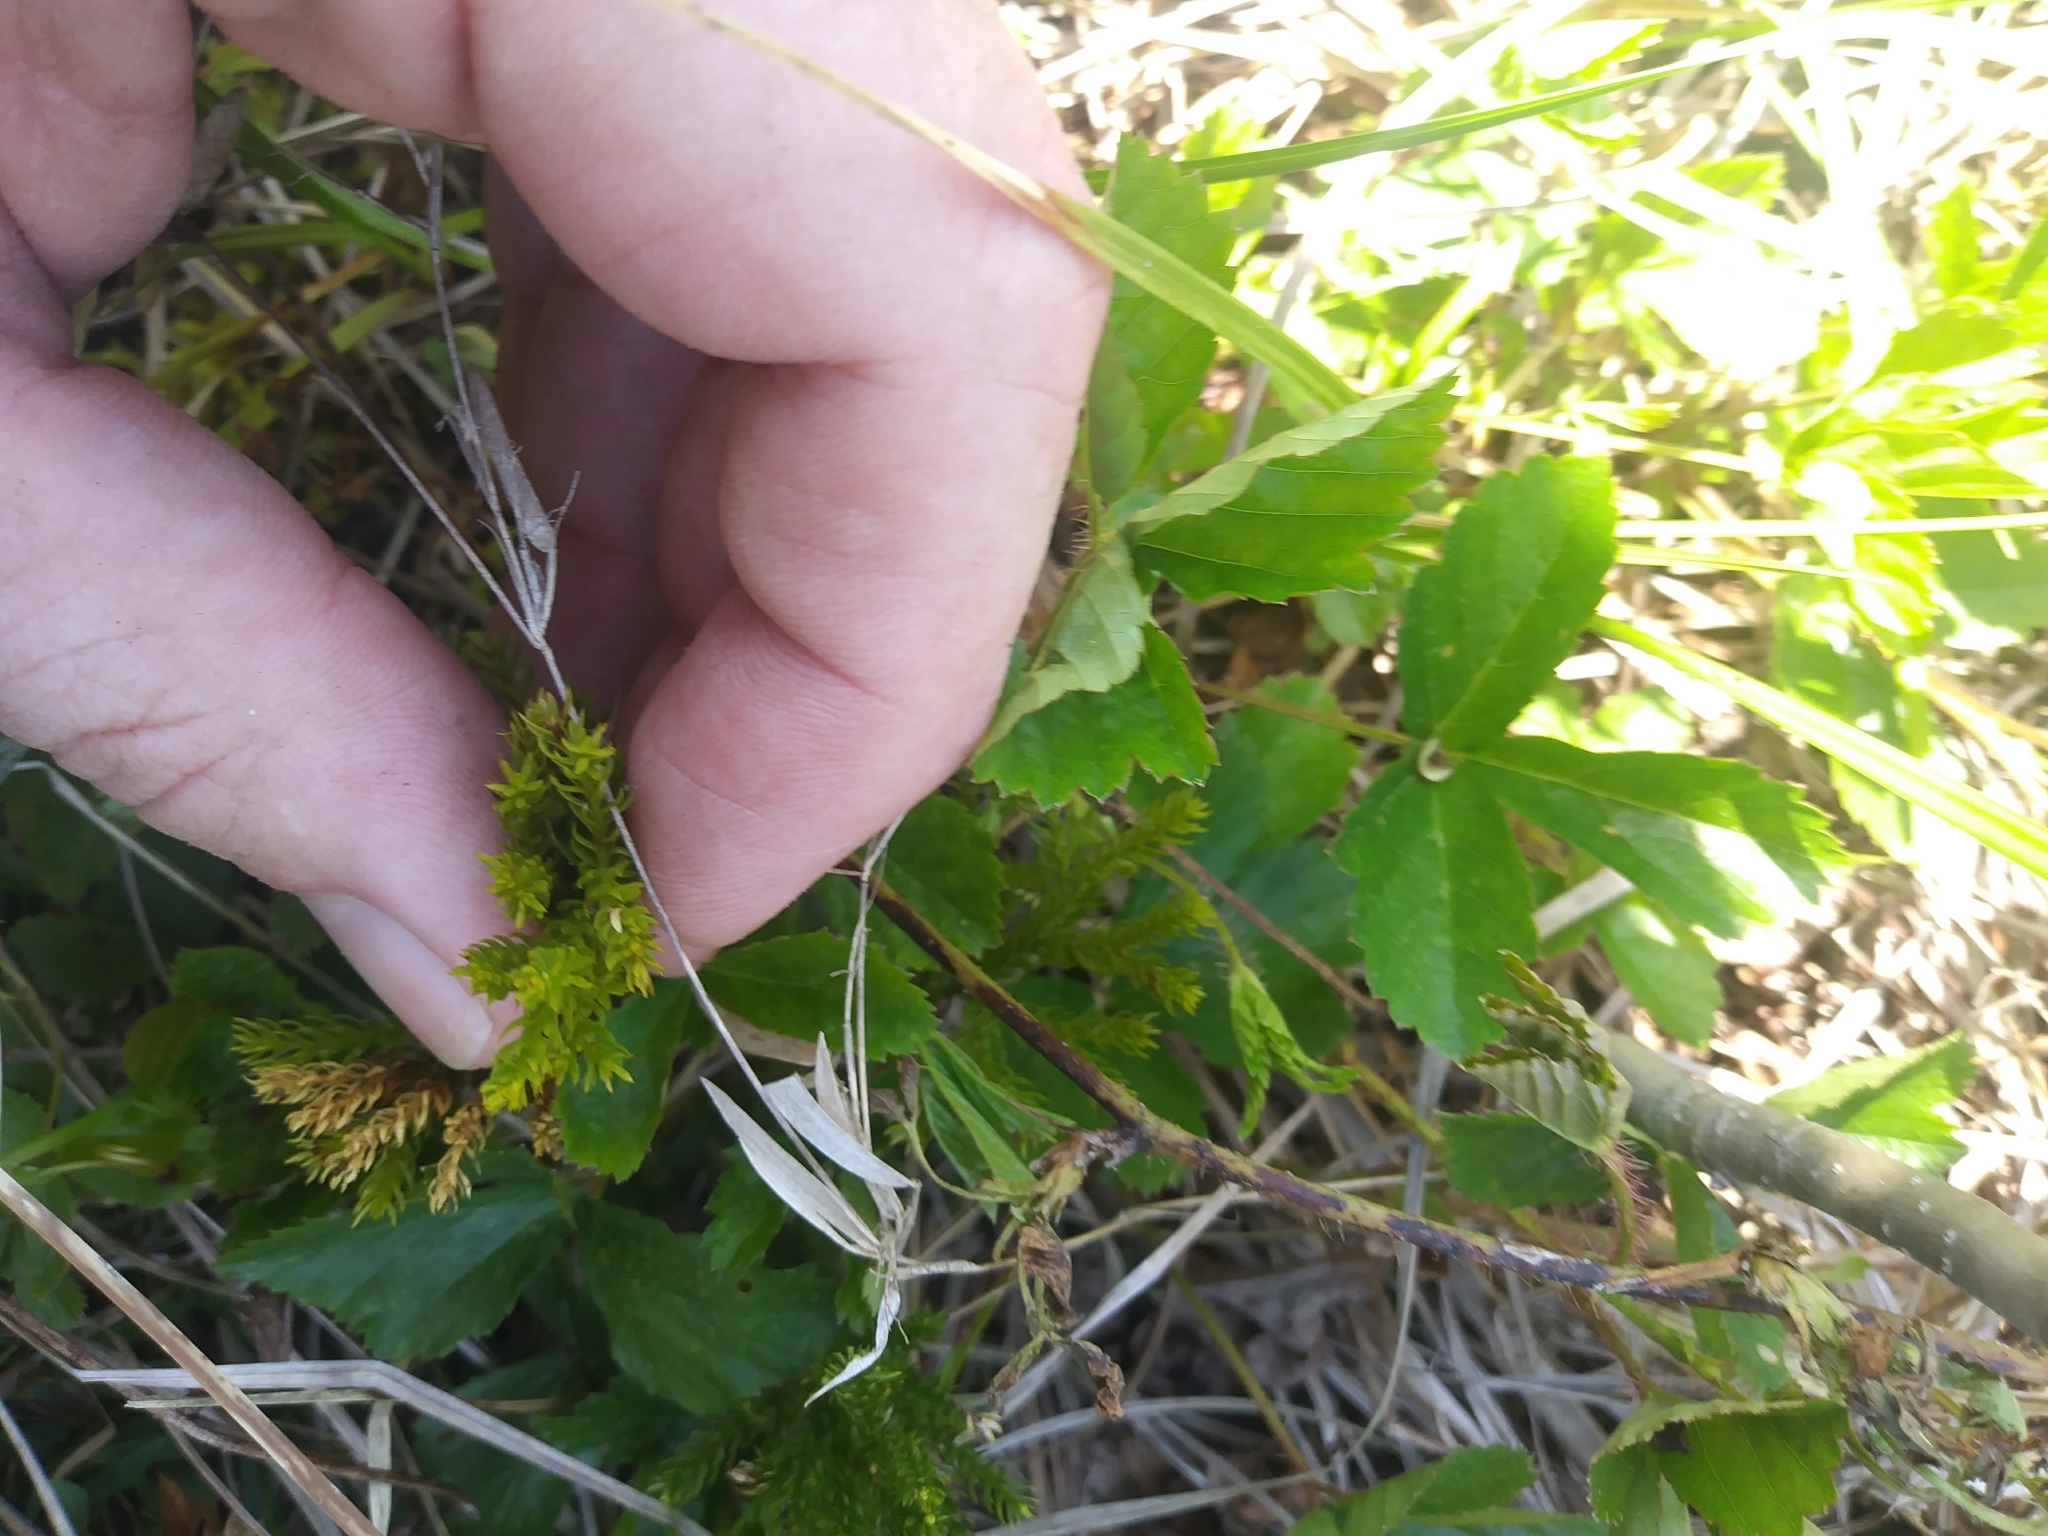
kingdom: Plantae
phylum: Tracheophyta
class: Lycopodiopsida
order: Lycopodiales
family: Lycopodiaceae
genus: Dendrolycopodium
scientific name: Dendrolycopodium hickeyi
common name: Hickey's clubmoss
